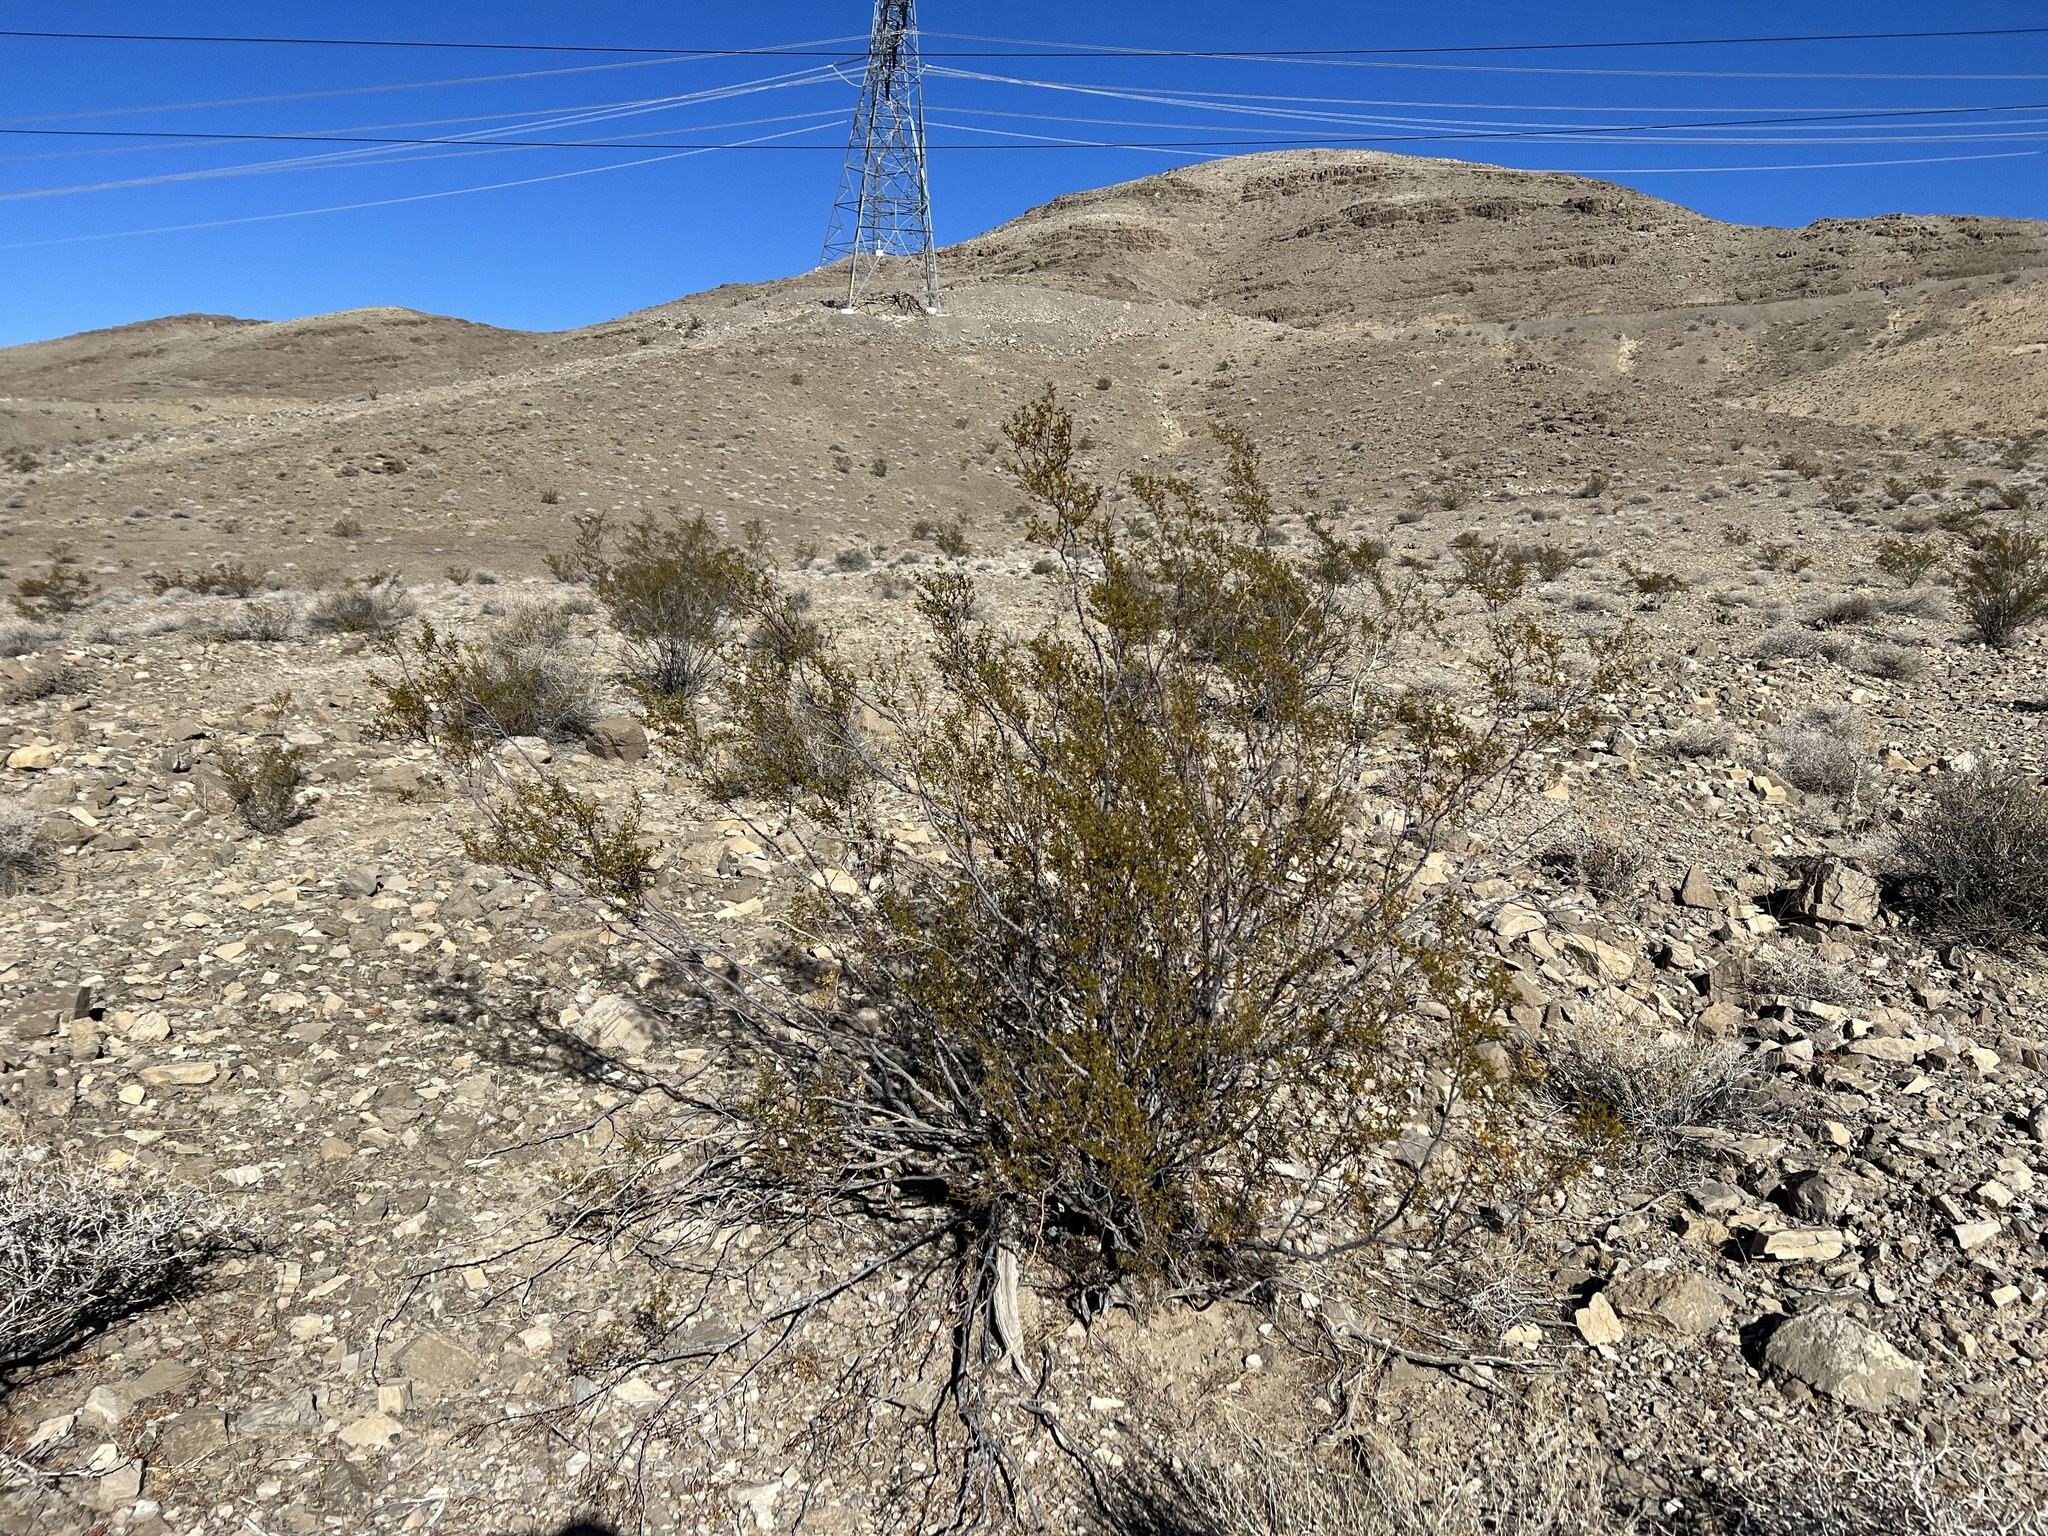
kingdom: Plantae
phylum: Tracheophyta
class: Magnoliopsida
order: Zygophyllales
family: Zygophyllaceae
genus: Larrea
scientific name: Larrea tridentata
